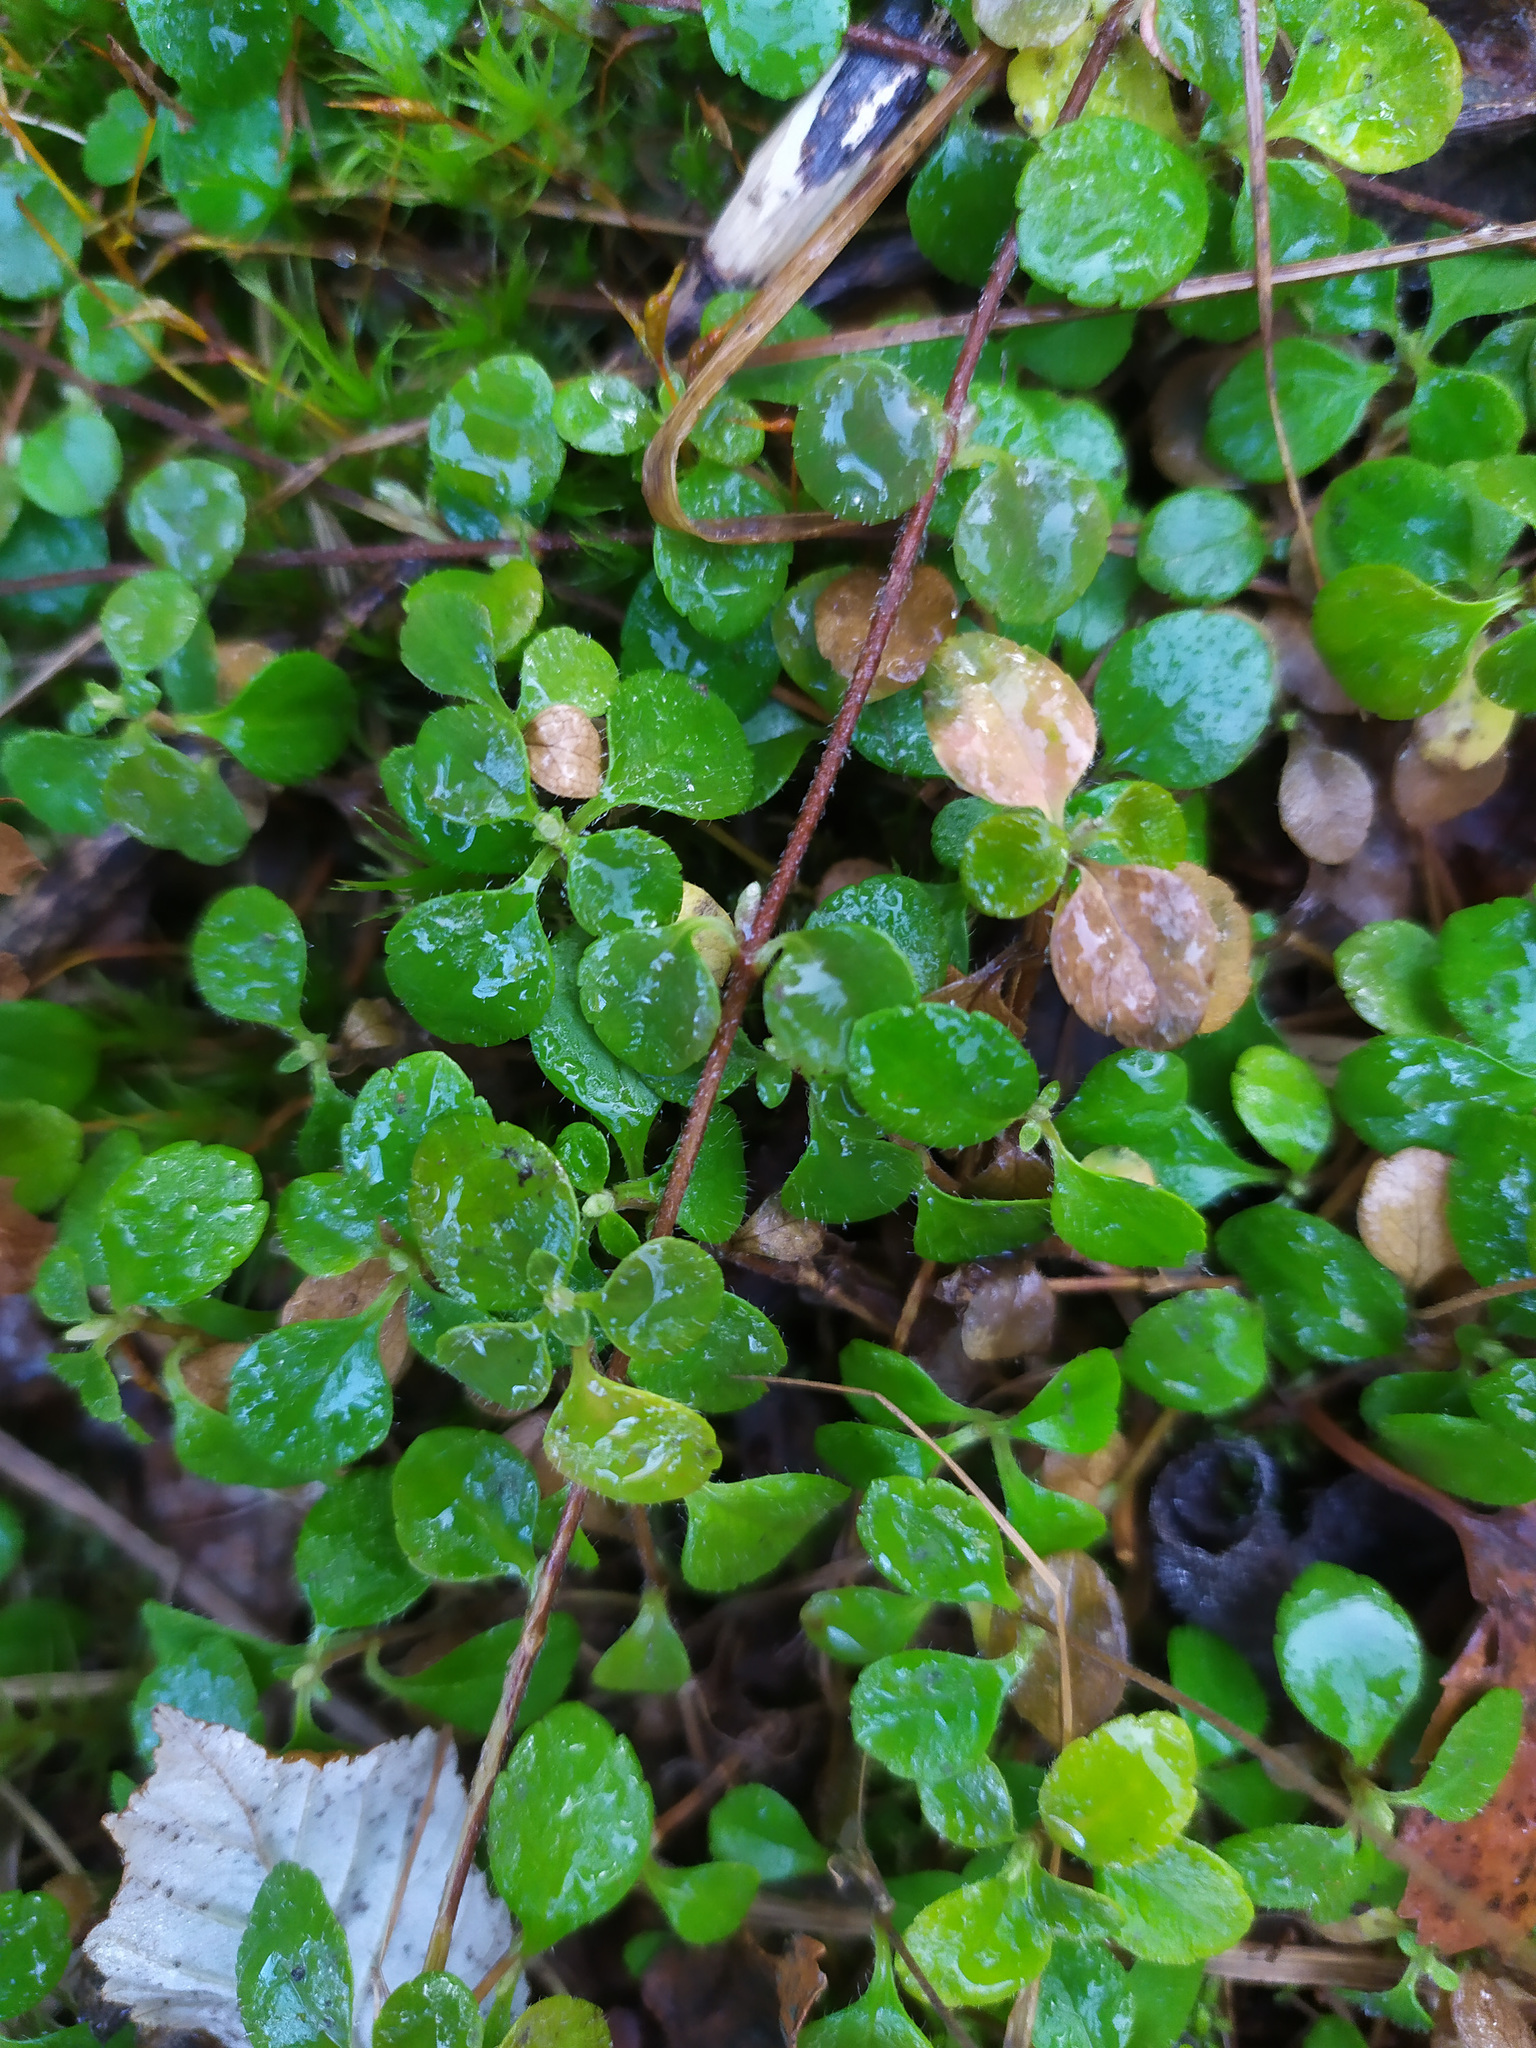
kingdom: Plantae
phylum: Tracheophyta
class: Magnoliopsida
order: Dipsacales
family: Caprifoliaceae
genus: Linnaea
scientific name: Linnaea borealis
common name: Twinflower
